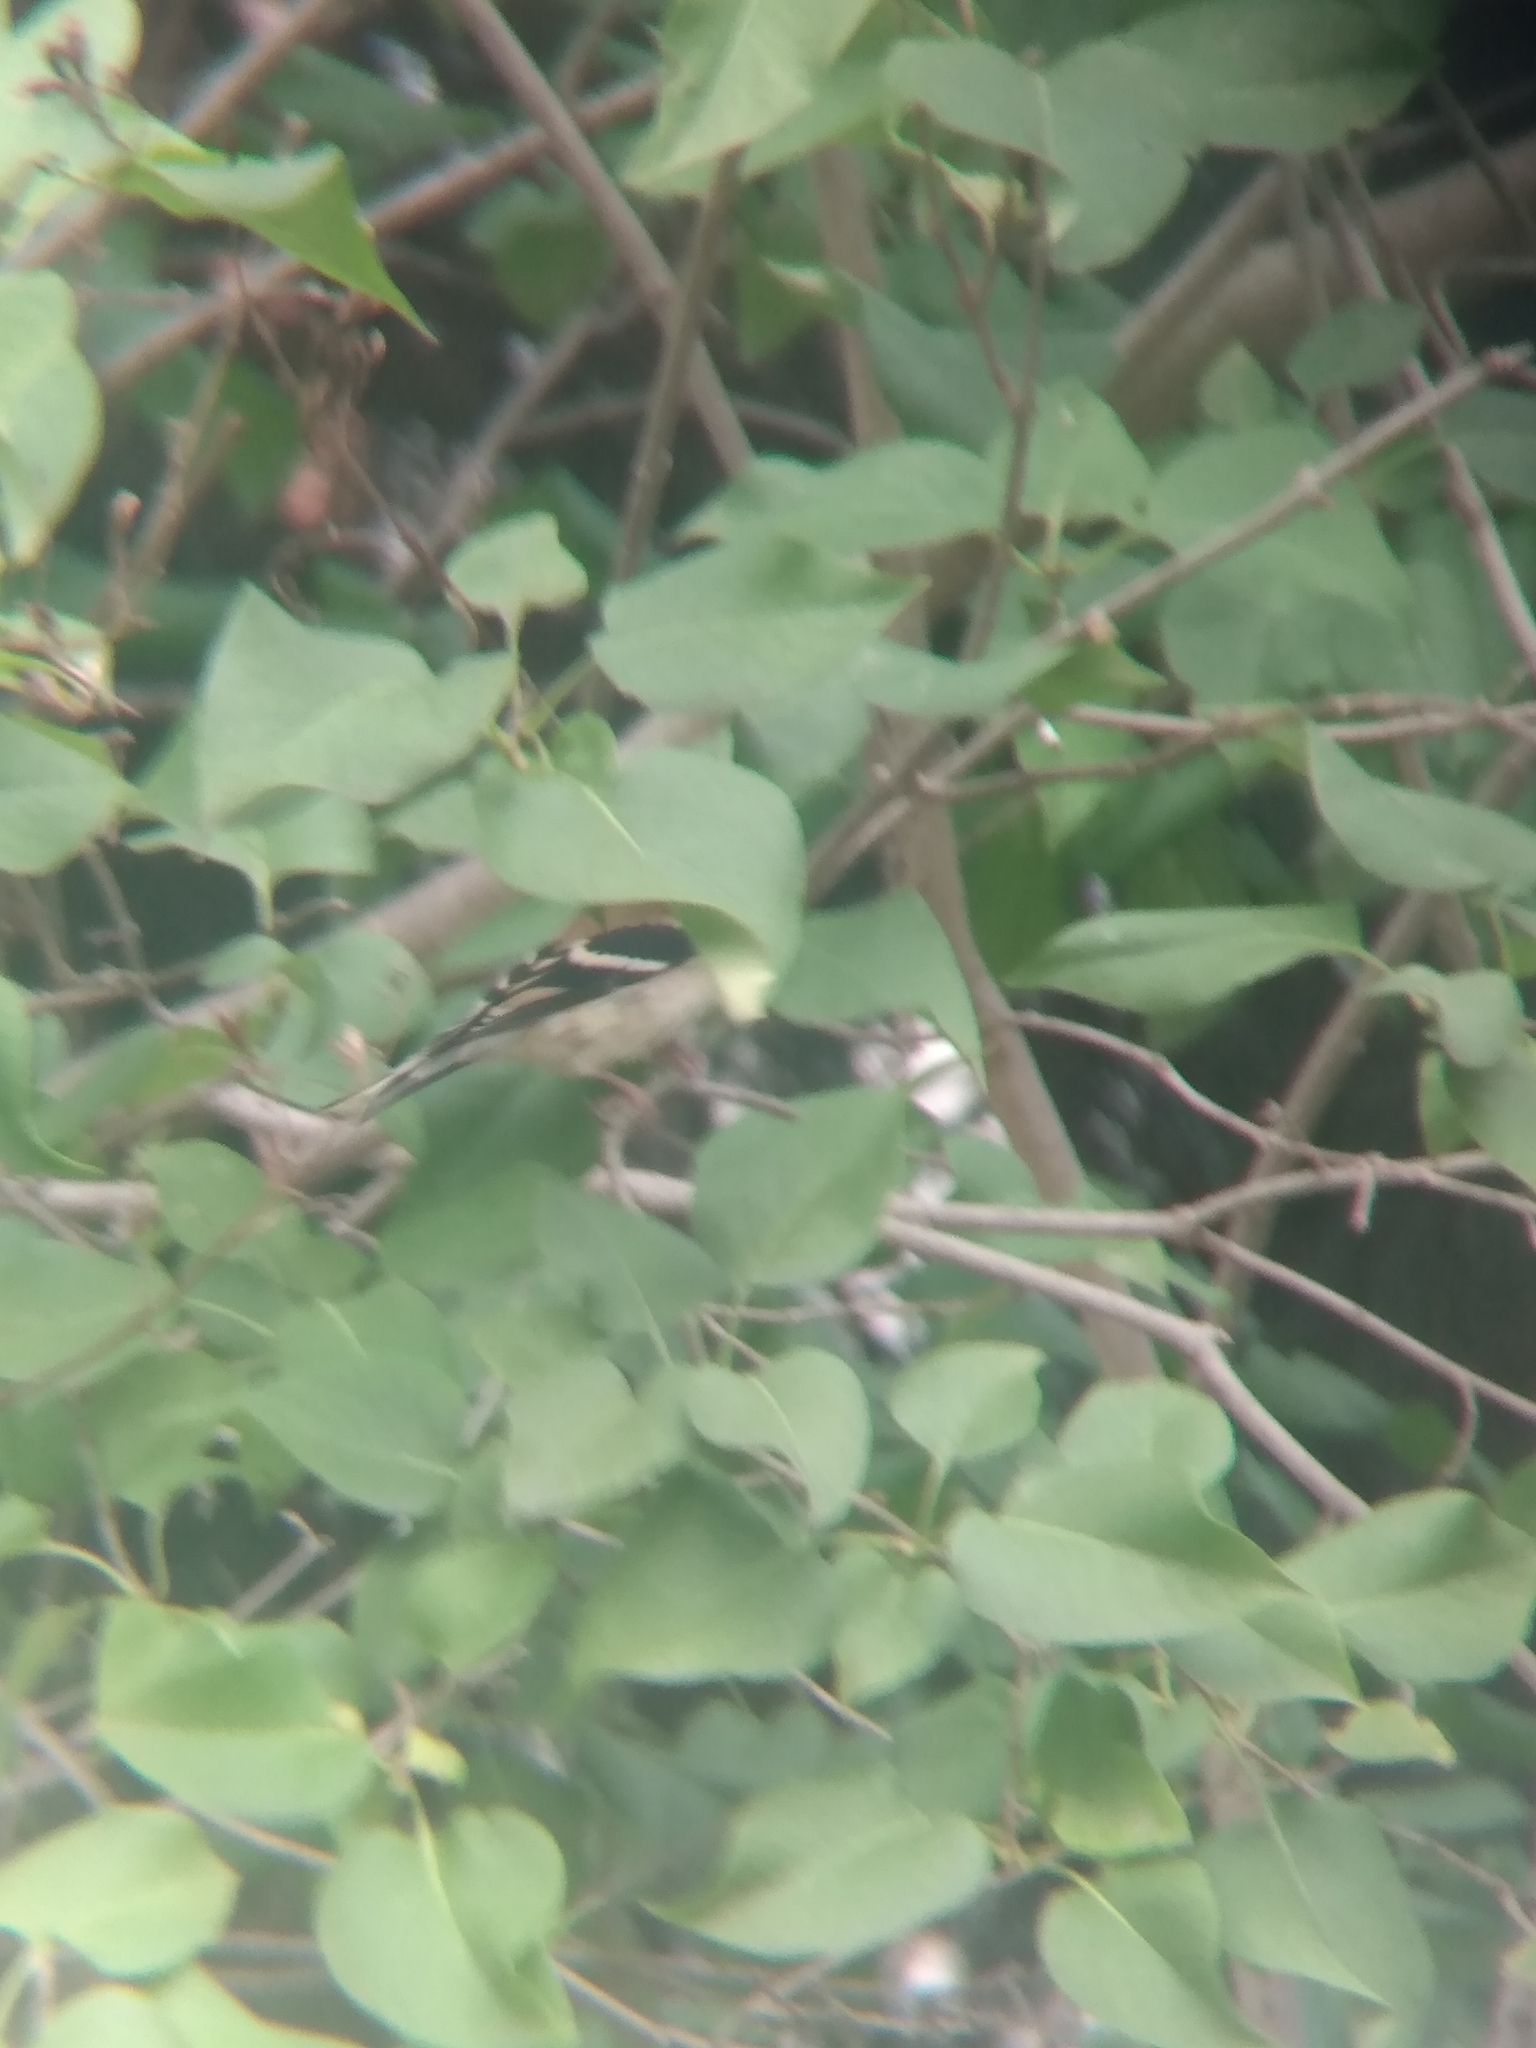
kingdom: Animalia
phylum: Chordata
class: Aves
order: Passeriformes
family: Fringillidae
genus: Spinus
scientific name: Spinus tristis
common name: American goldfinch
